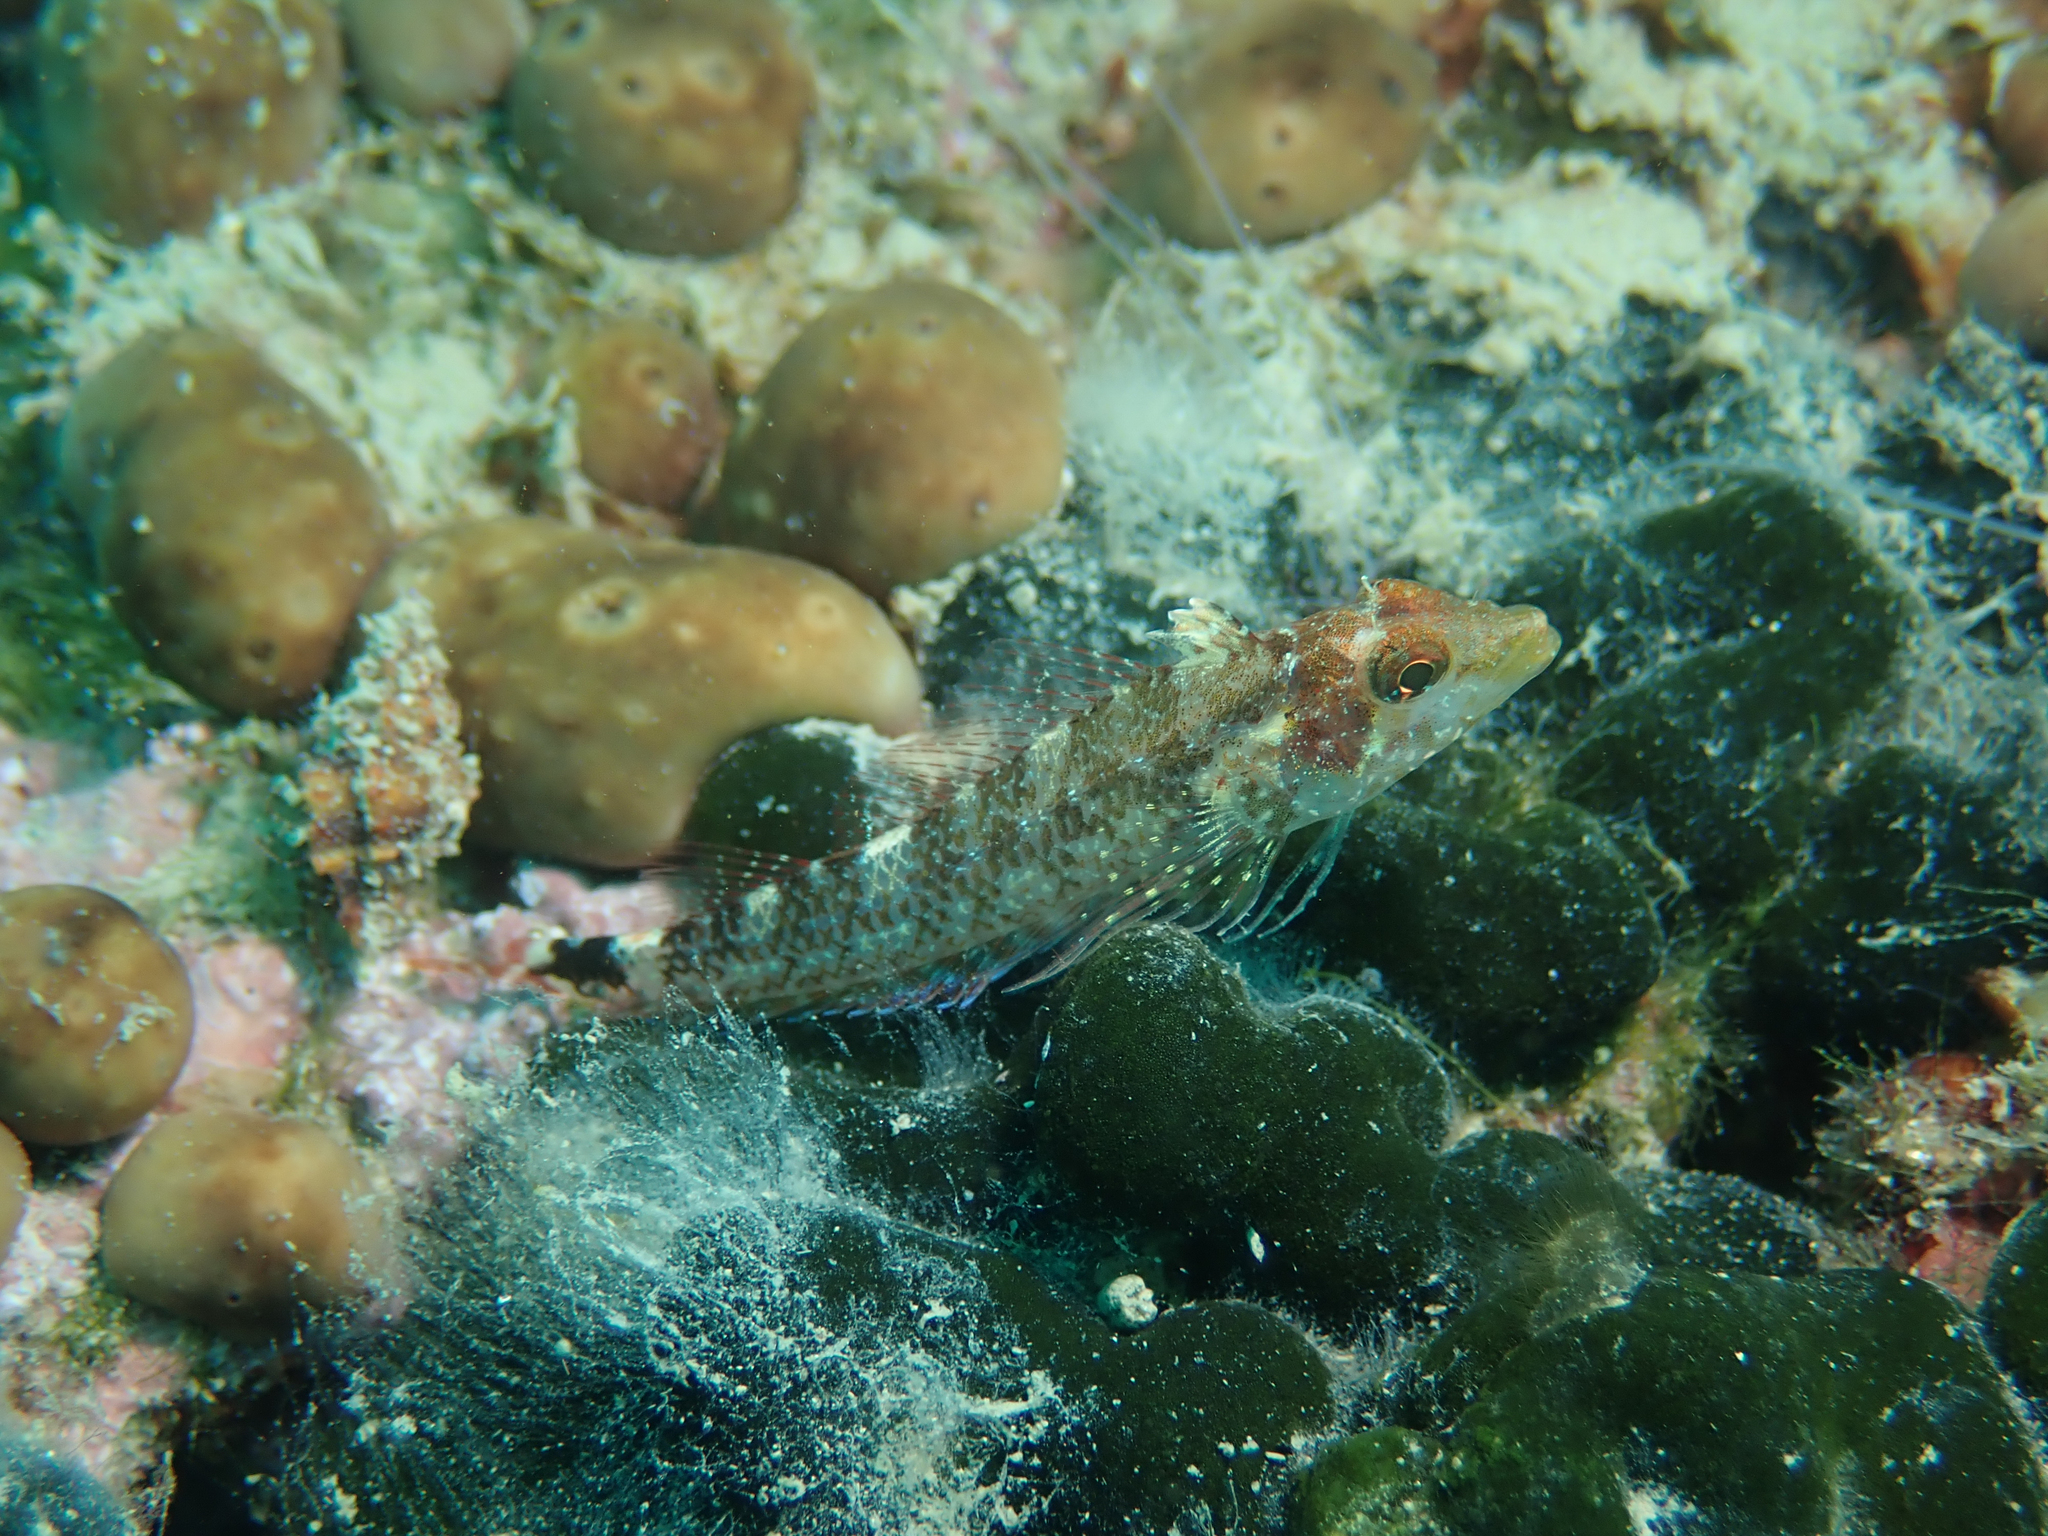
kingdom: Animalia
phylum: Chordata
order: Perciformes
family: Tripterygiidae
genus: Tripterygion
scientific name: Tripterygion delaisi
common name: Black-face blenny
